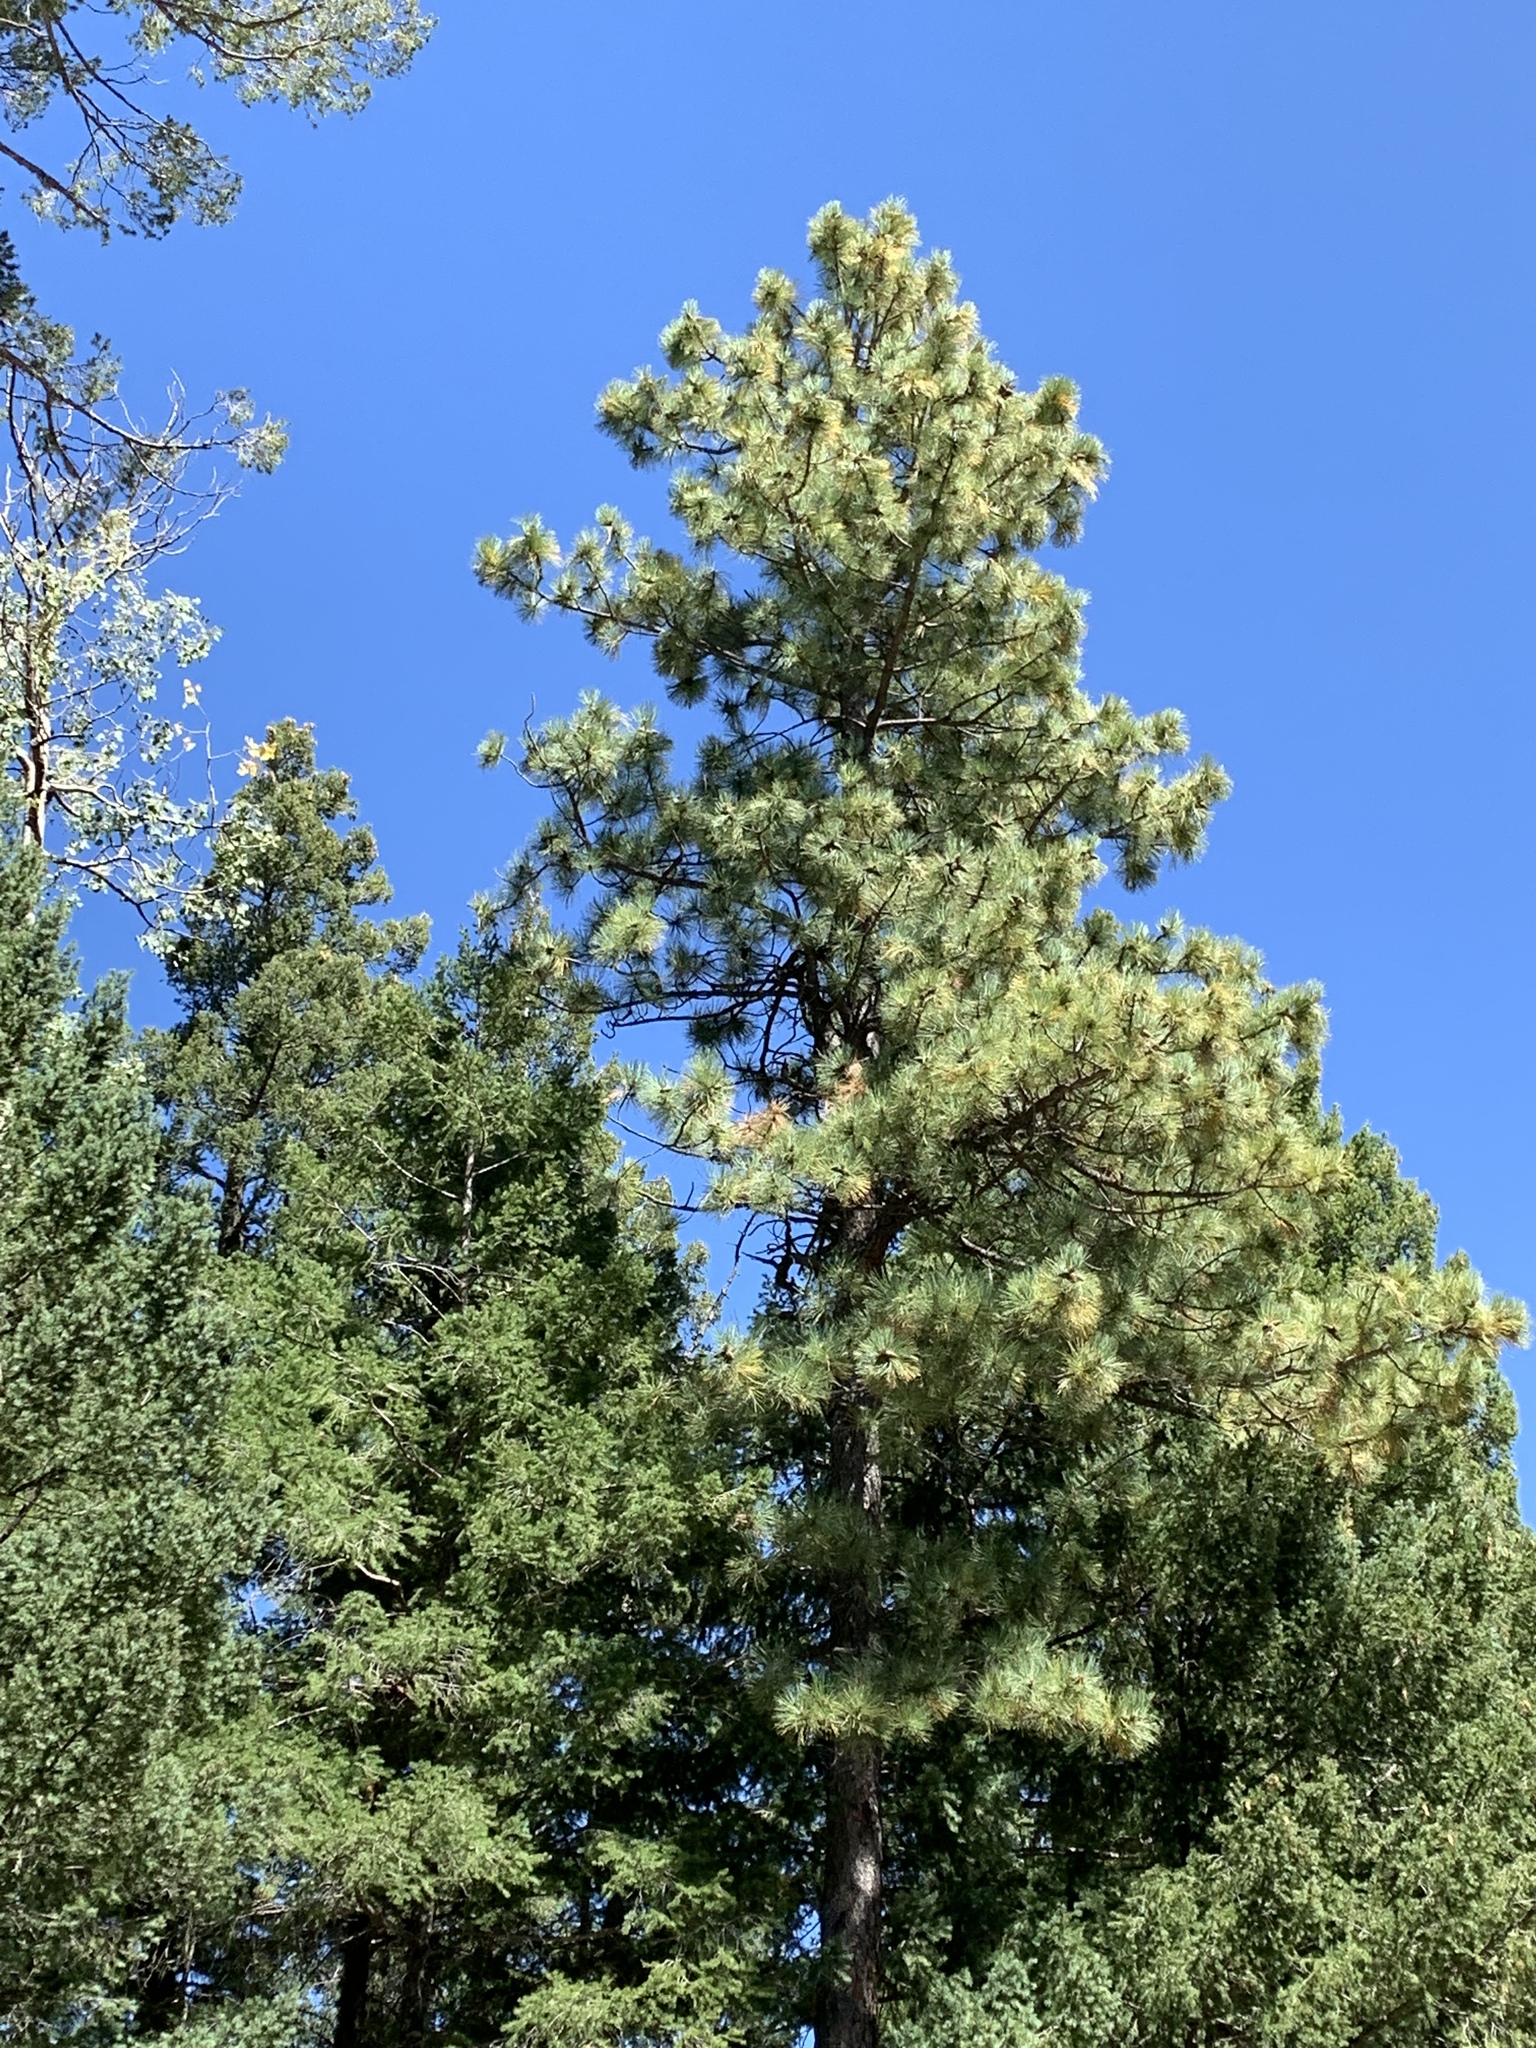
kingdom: Plantae
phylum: Tracheophyta
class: Pinopsida
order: Pinales
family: Pinaceae
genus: Pinus
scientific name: Pinus ponderosa
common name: Western yellow-pine
